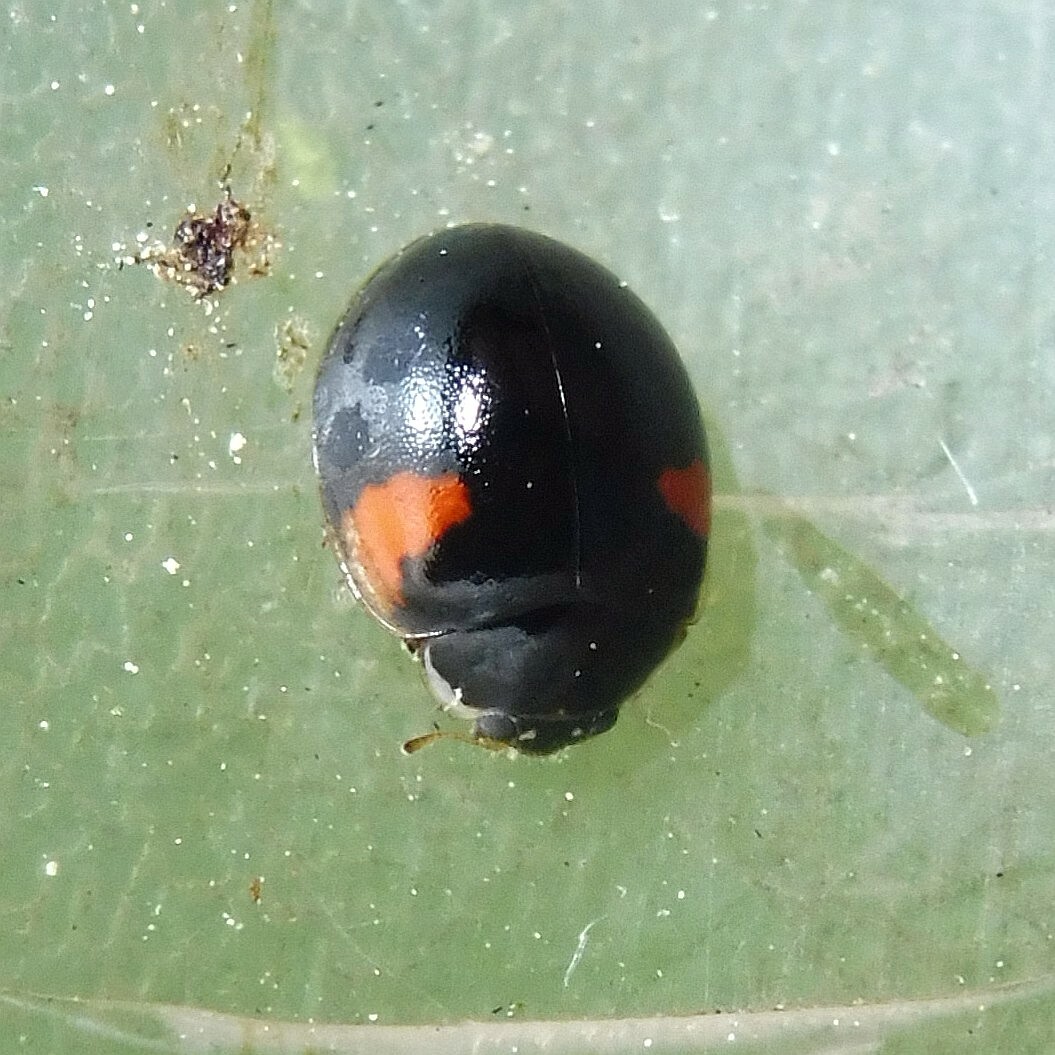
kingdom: Animalia
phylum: Arthropoda
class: Insecta
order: Coleoptera
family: Coccinellidae
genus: Adalia
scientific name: Adalia decempunctata
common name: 10-spot ladybird
